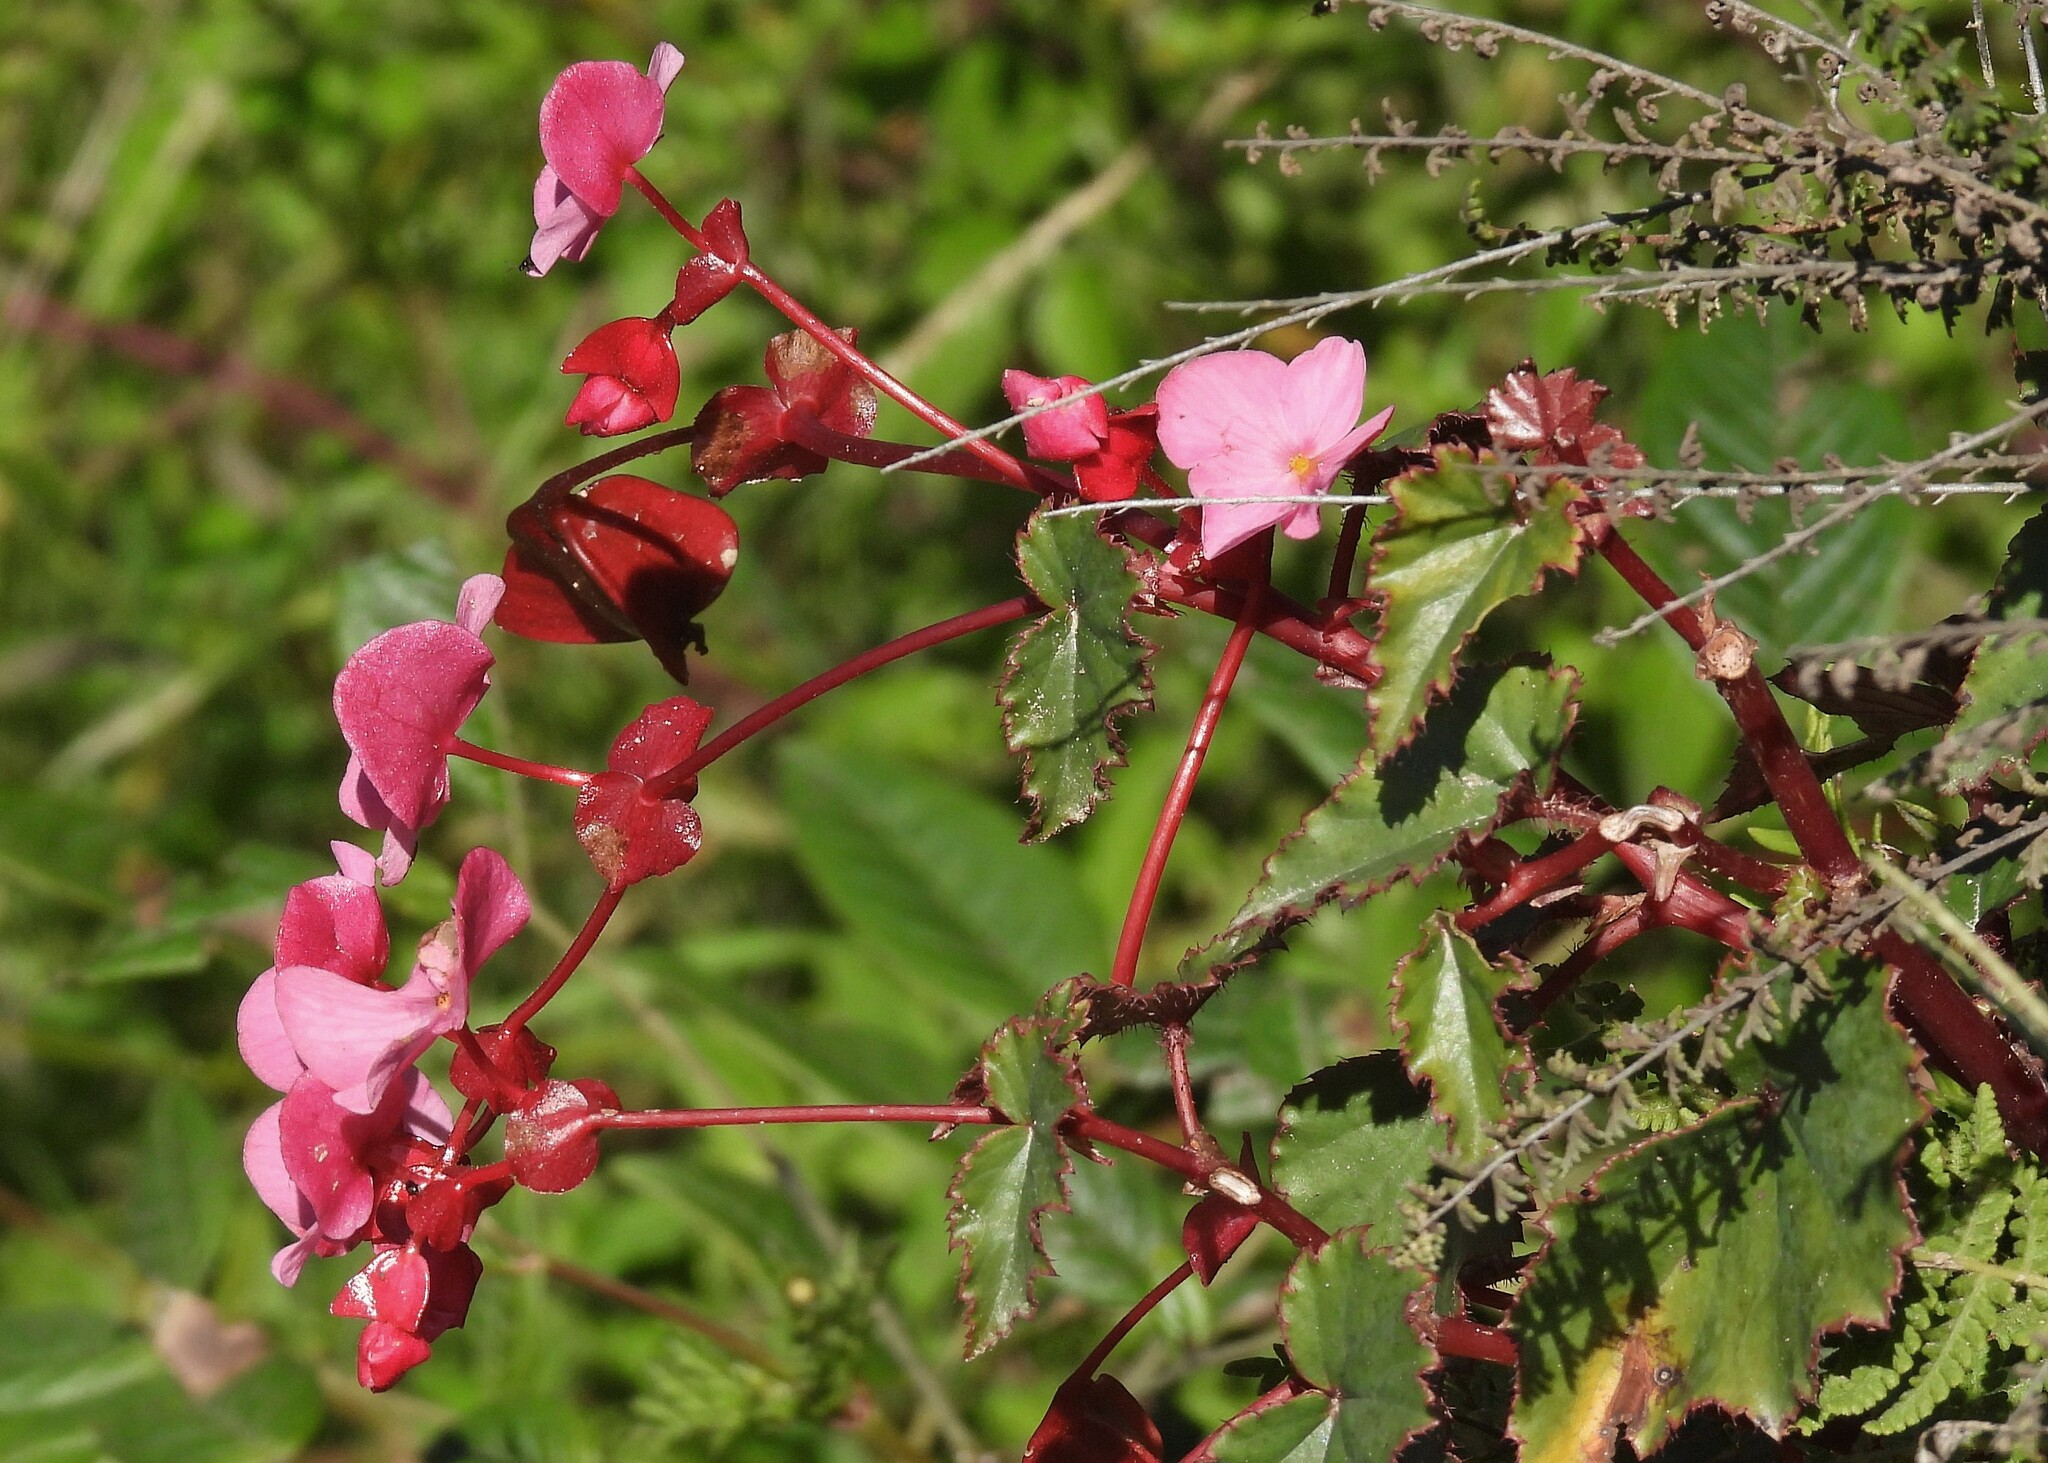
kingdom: Plantae
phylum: Tracheophyta
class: Magnoliopsida
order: Cucurbitales
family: Begoniaceae
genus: Begonia
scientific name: Begonia micranthera
